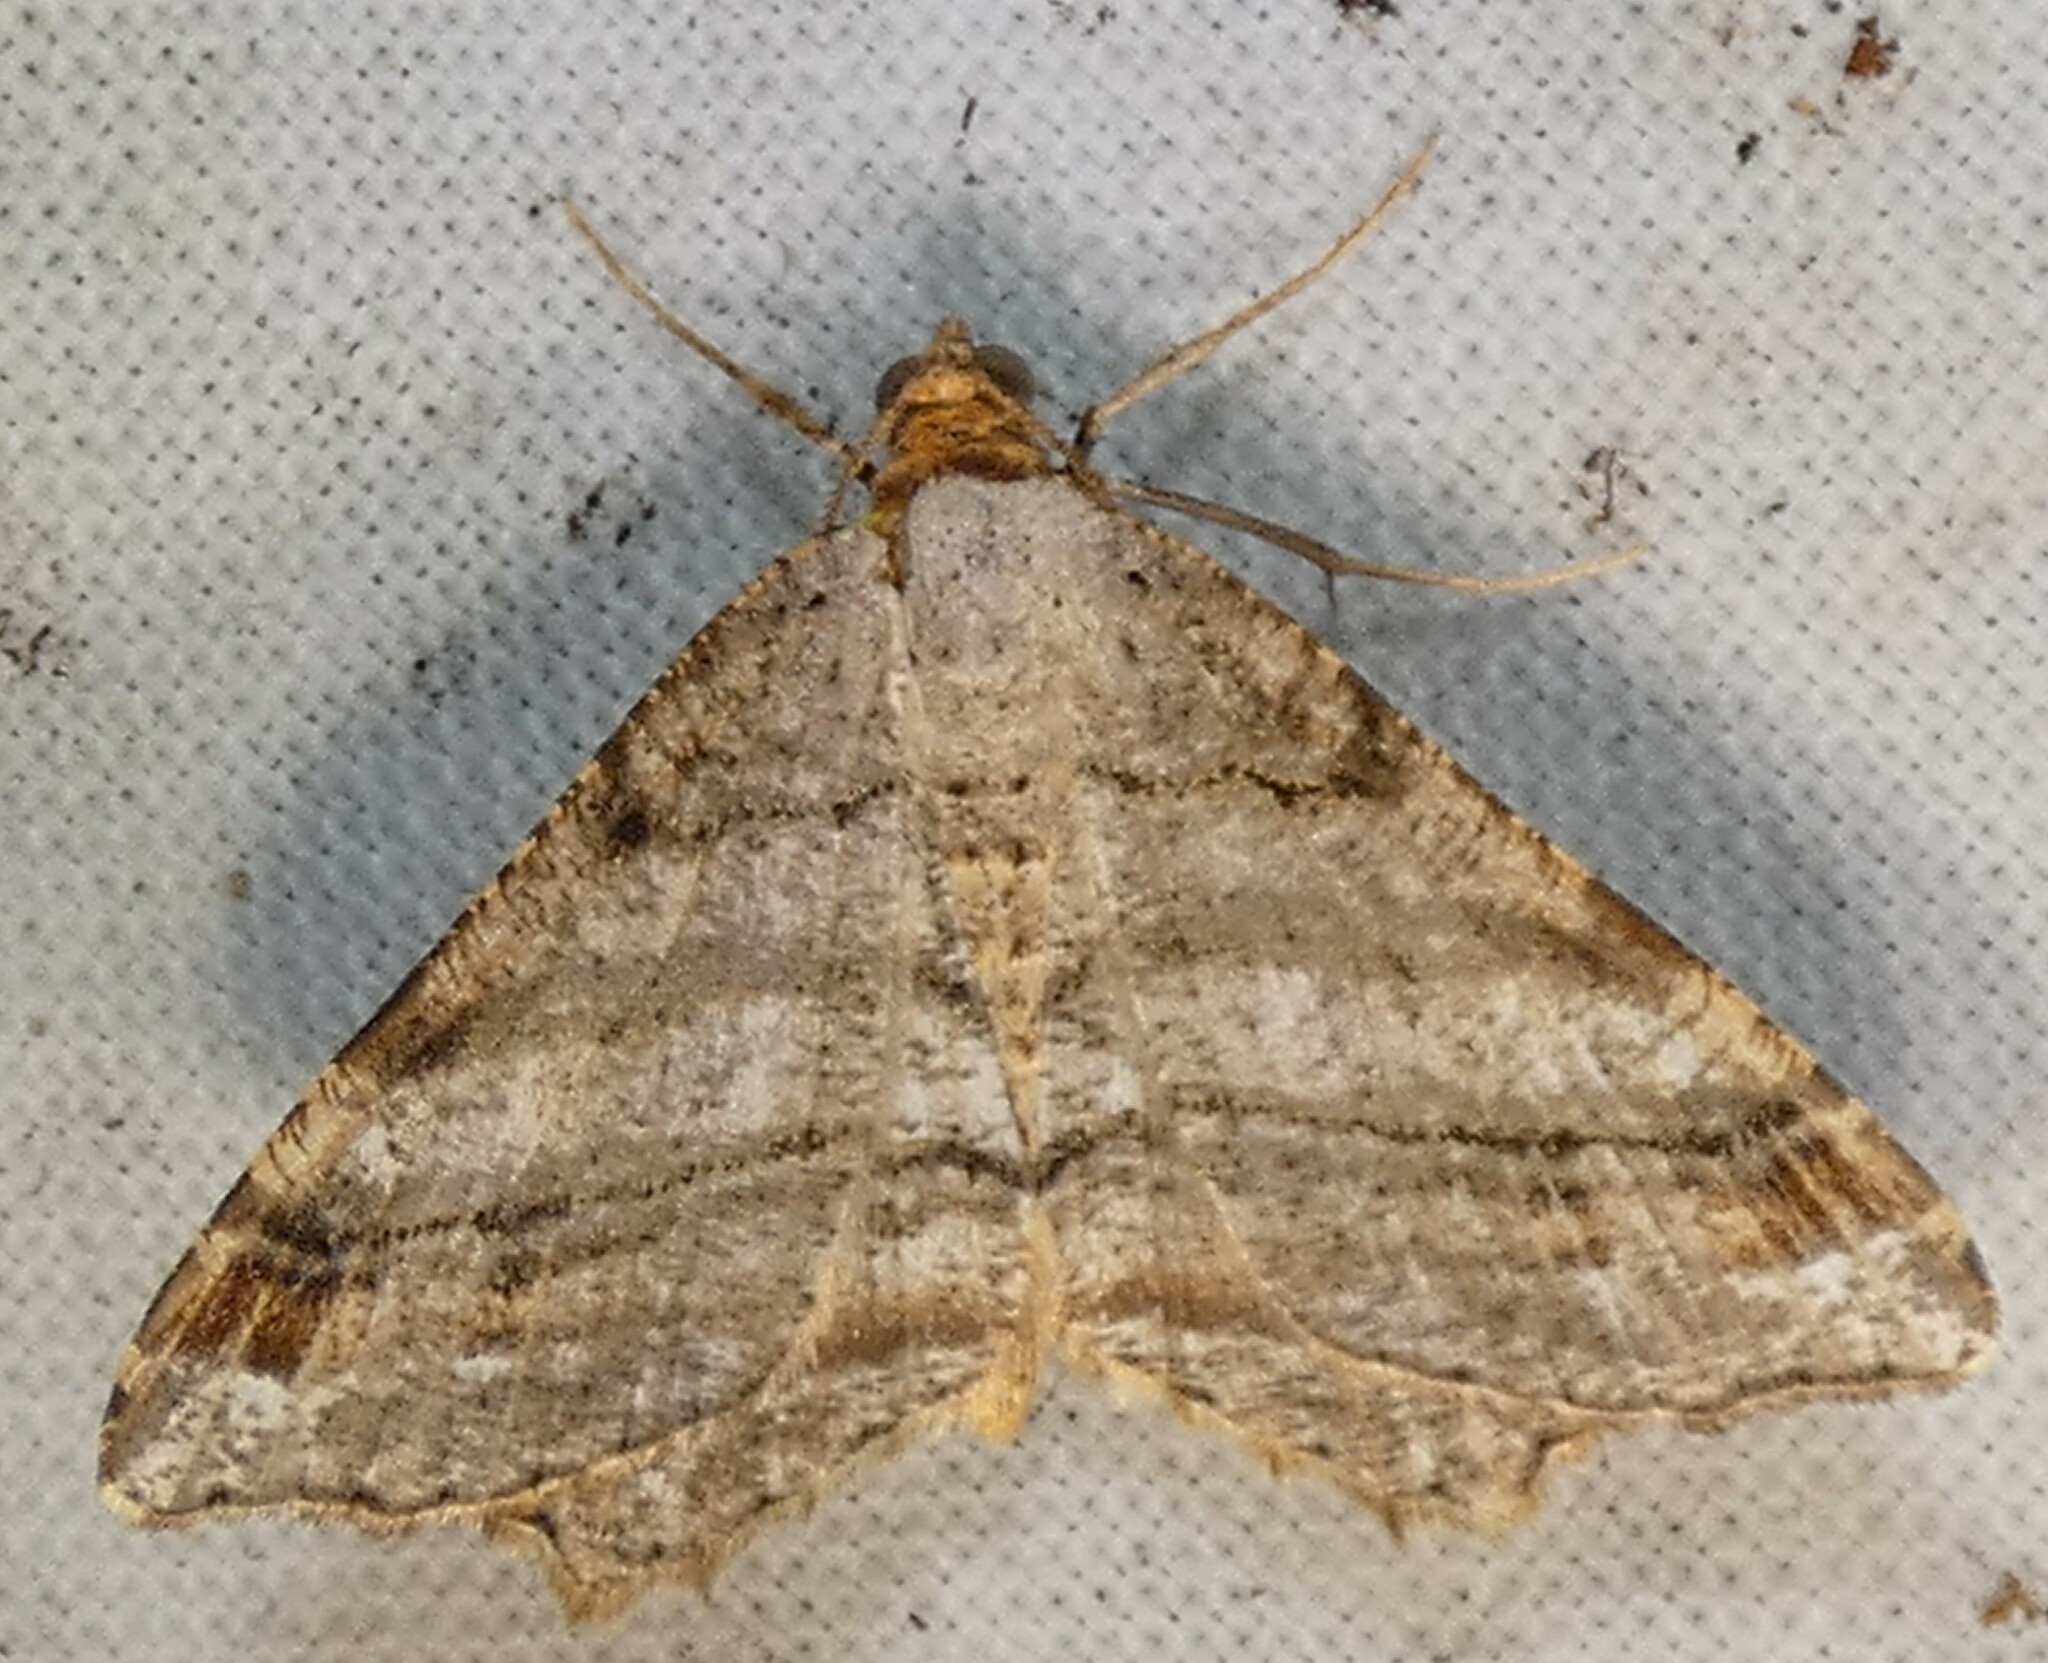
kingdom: Animalia
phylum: Arthropoda
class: Insecta
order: Lepidoptera
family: Geometridae
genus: Macaria
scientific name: Macaria multilineata
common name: Many-lined angle
